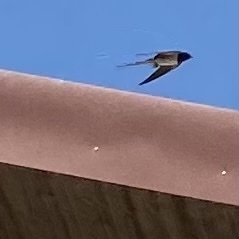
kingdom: Animalia
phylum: Chordata
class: Aves
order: Passeriformes
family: Hirundinidae
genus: Hirundo
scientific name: Hirundo rustica
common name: Barn swallow
